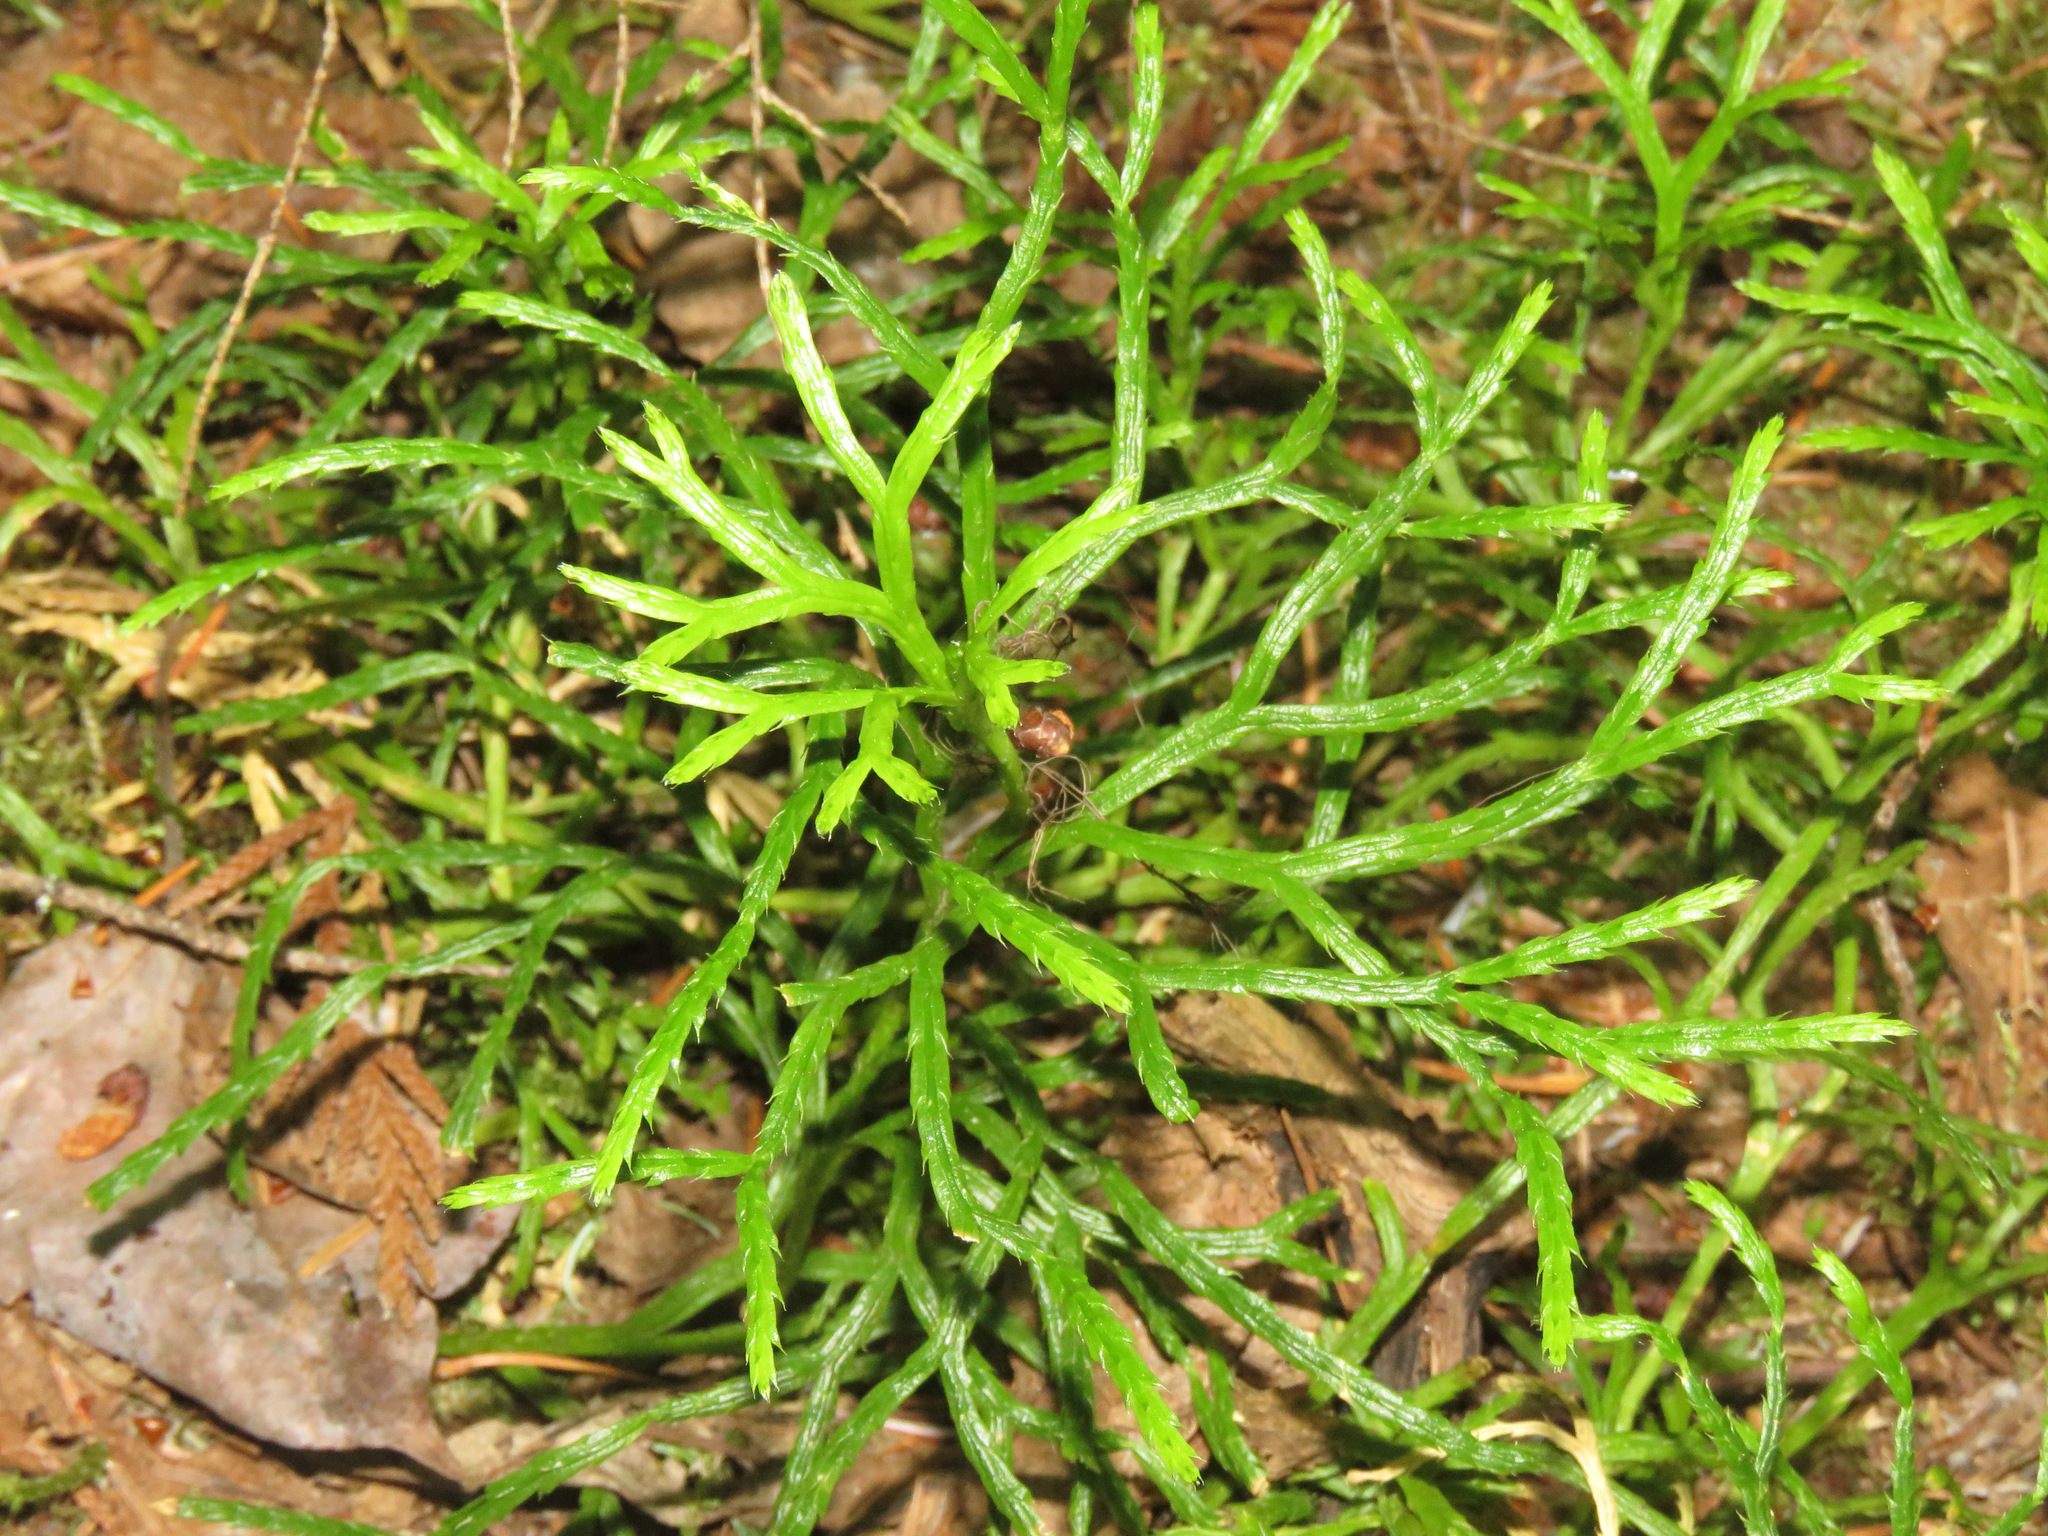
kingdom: Plantae
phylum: Tracheophyta
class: Lycopodiopsida
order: Lycopodiales
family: Lycopodiaceae
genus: Diphasiastrum
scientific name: Diphasiastrum complanatum
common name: Northern running-pine
